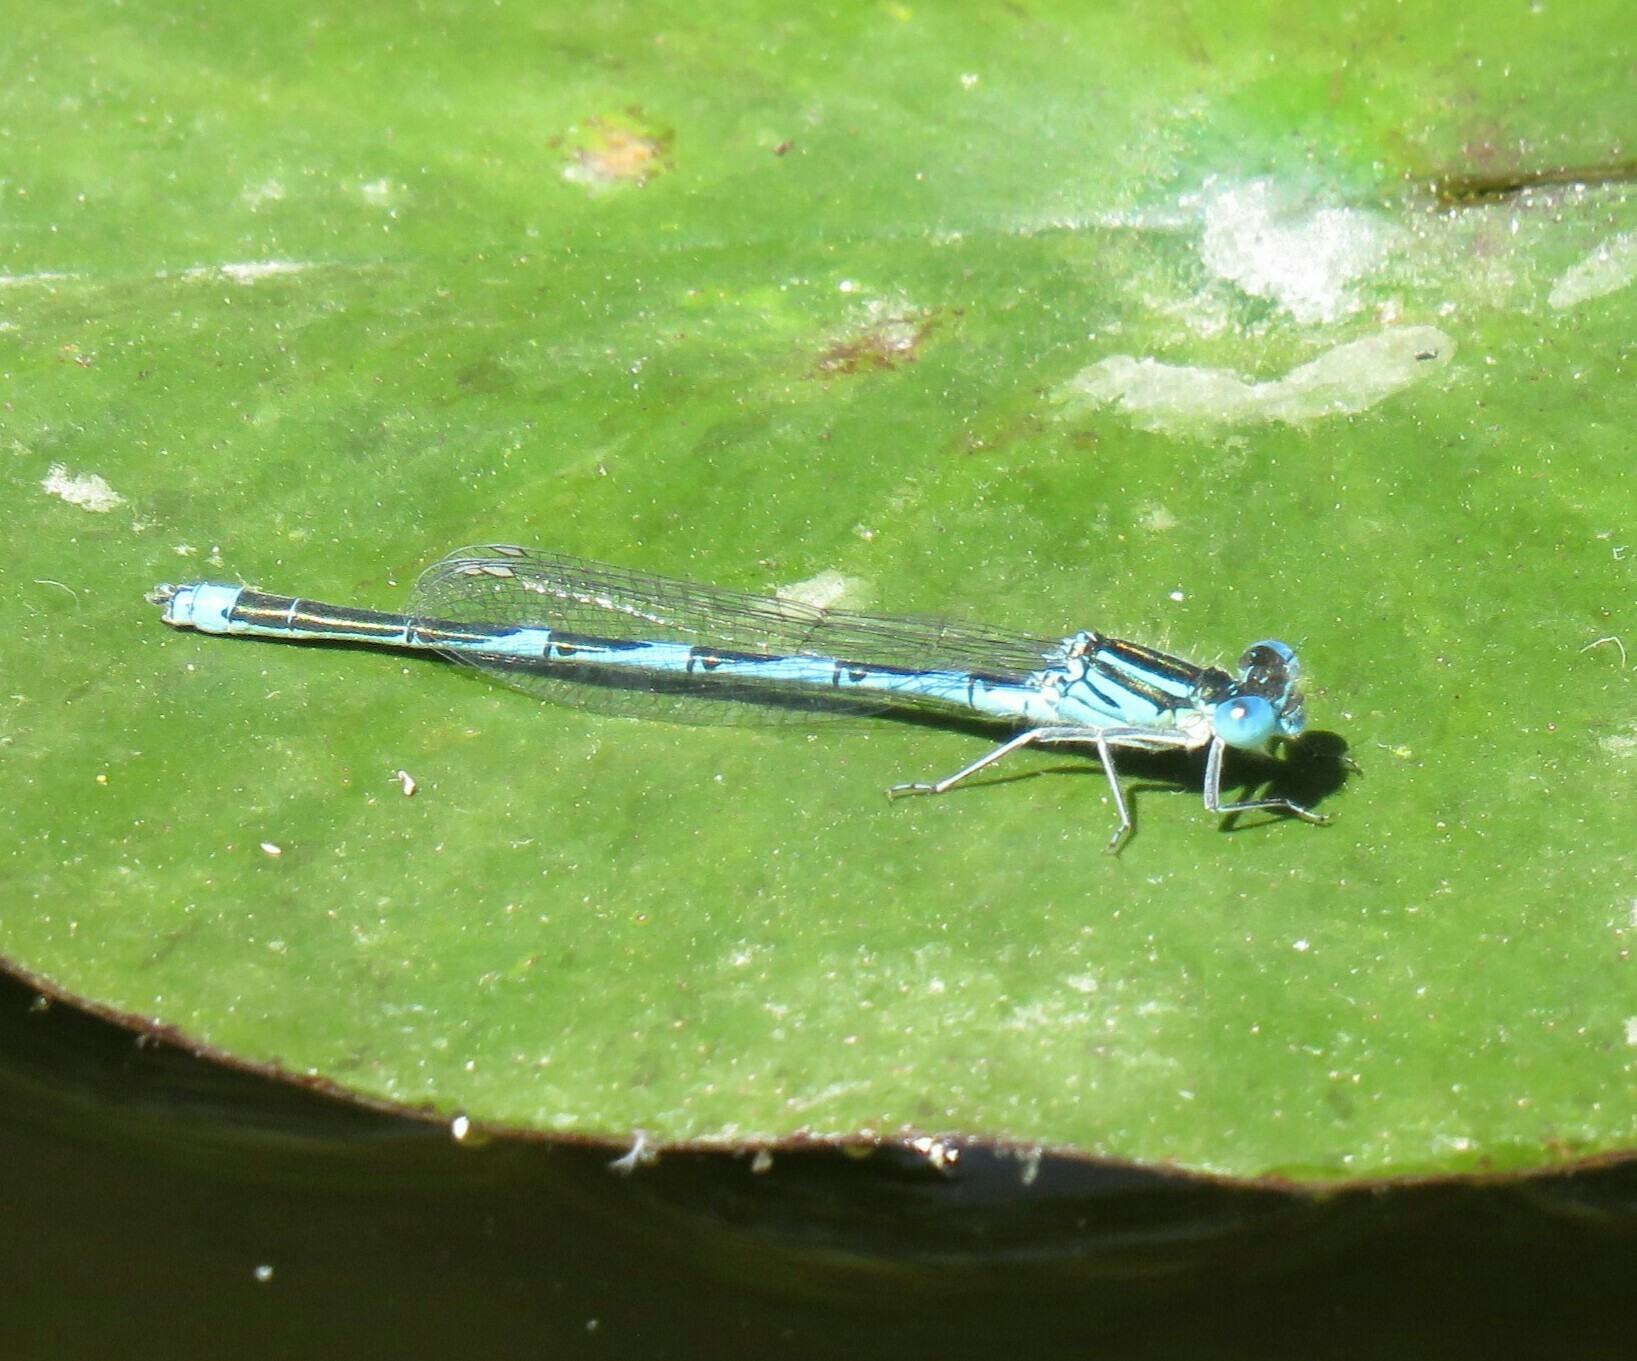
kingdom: Animalia
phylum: Arthropoda
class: Insecta
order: Odonata
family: Coenagrionidae
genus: Erythromma
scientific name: Erythromma lindenii
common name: Blue-eye
